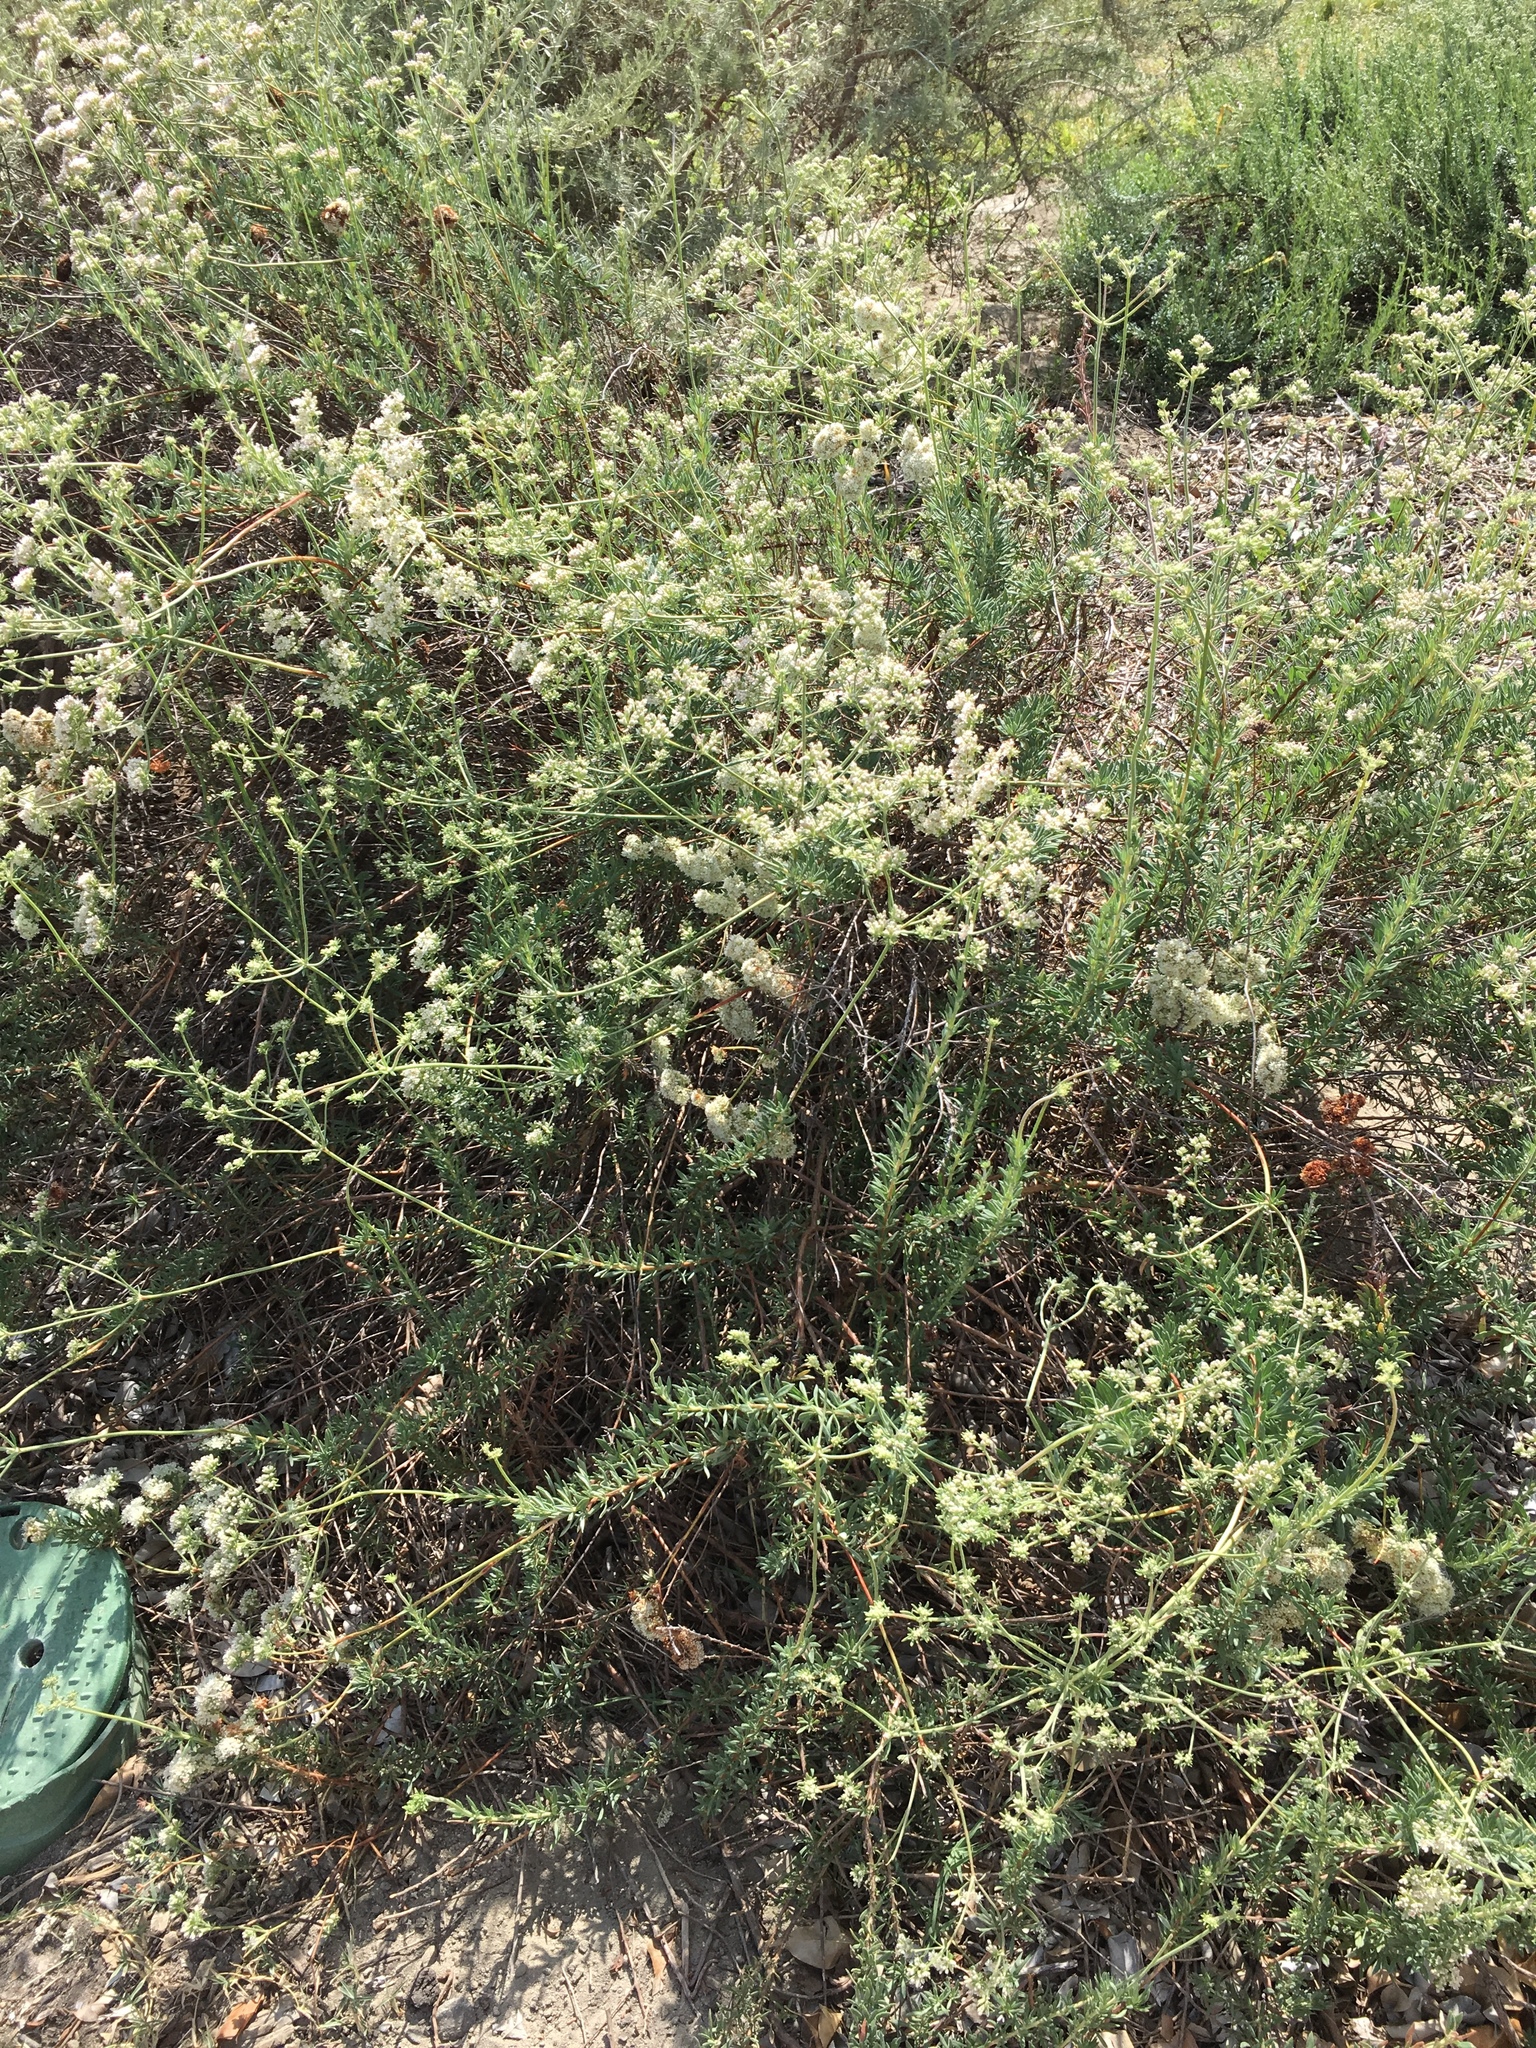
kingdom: Plantae
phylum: Tracheophyta
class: Magnoliopsida
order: Caryophyllales
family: Polygonaceae
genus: Eriogonum
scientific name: Eriogonum fasciculatum
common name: California wild buckwheat
